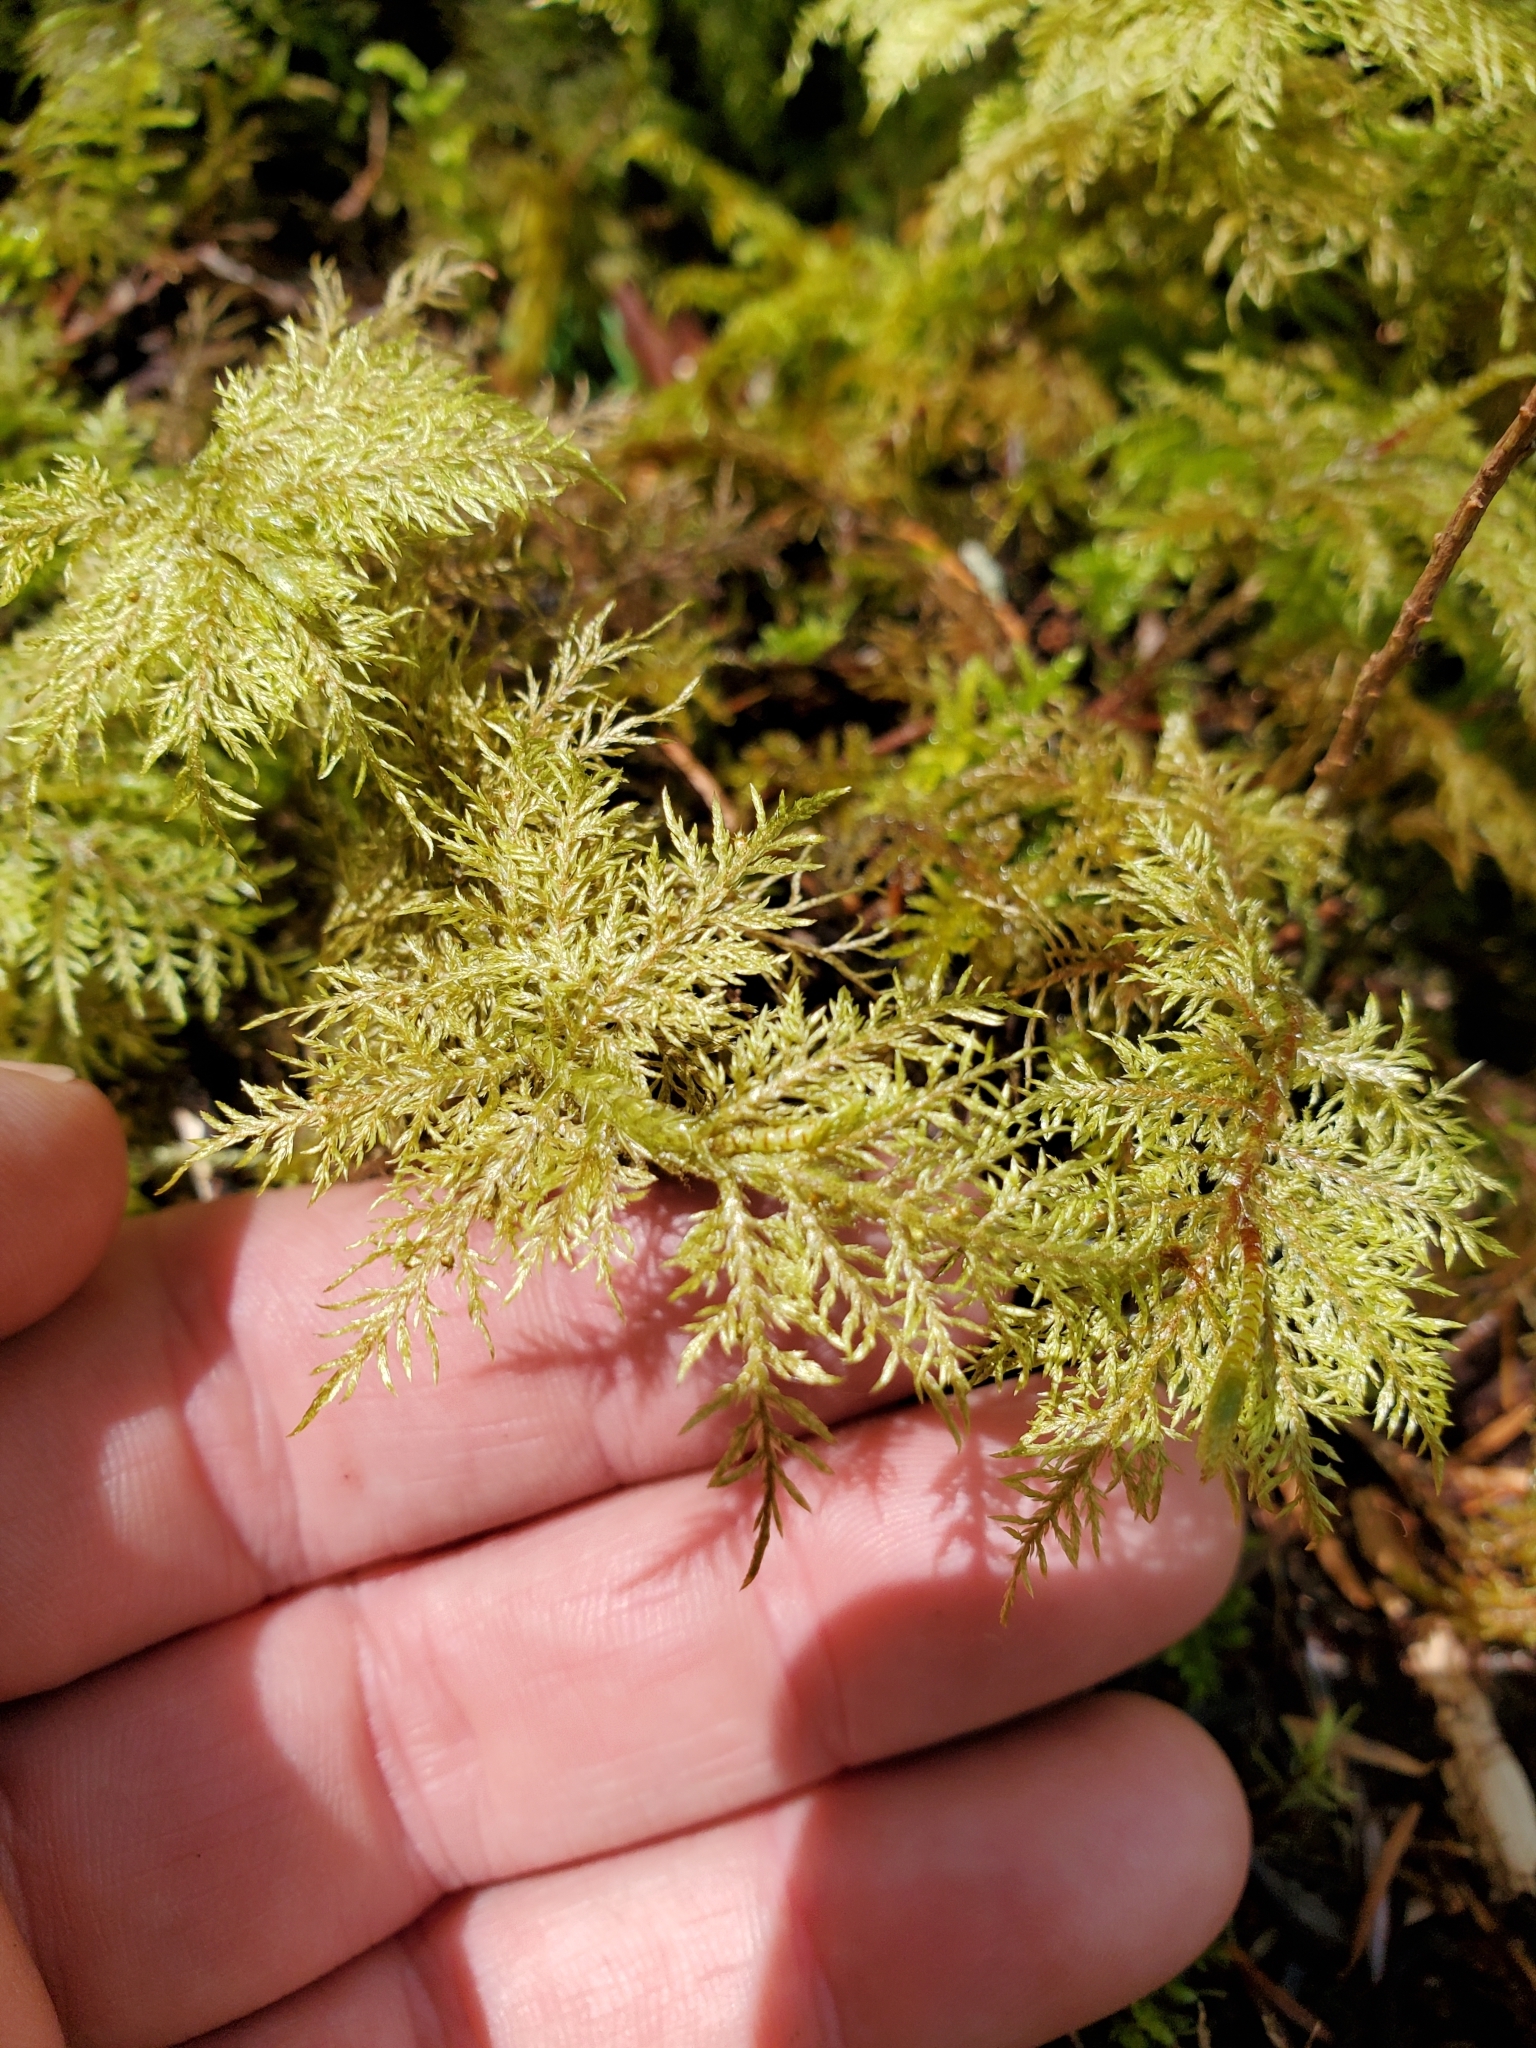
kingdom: Plantae
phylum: Bryophyta
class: Bryopsida
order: Hypnales
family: Hylocomiaceae
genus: Hylocomium
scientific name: Hylocomium splendens
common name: Stairstep moss
